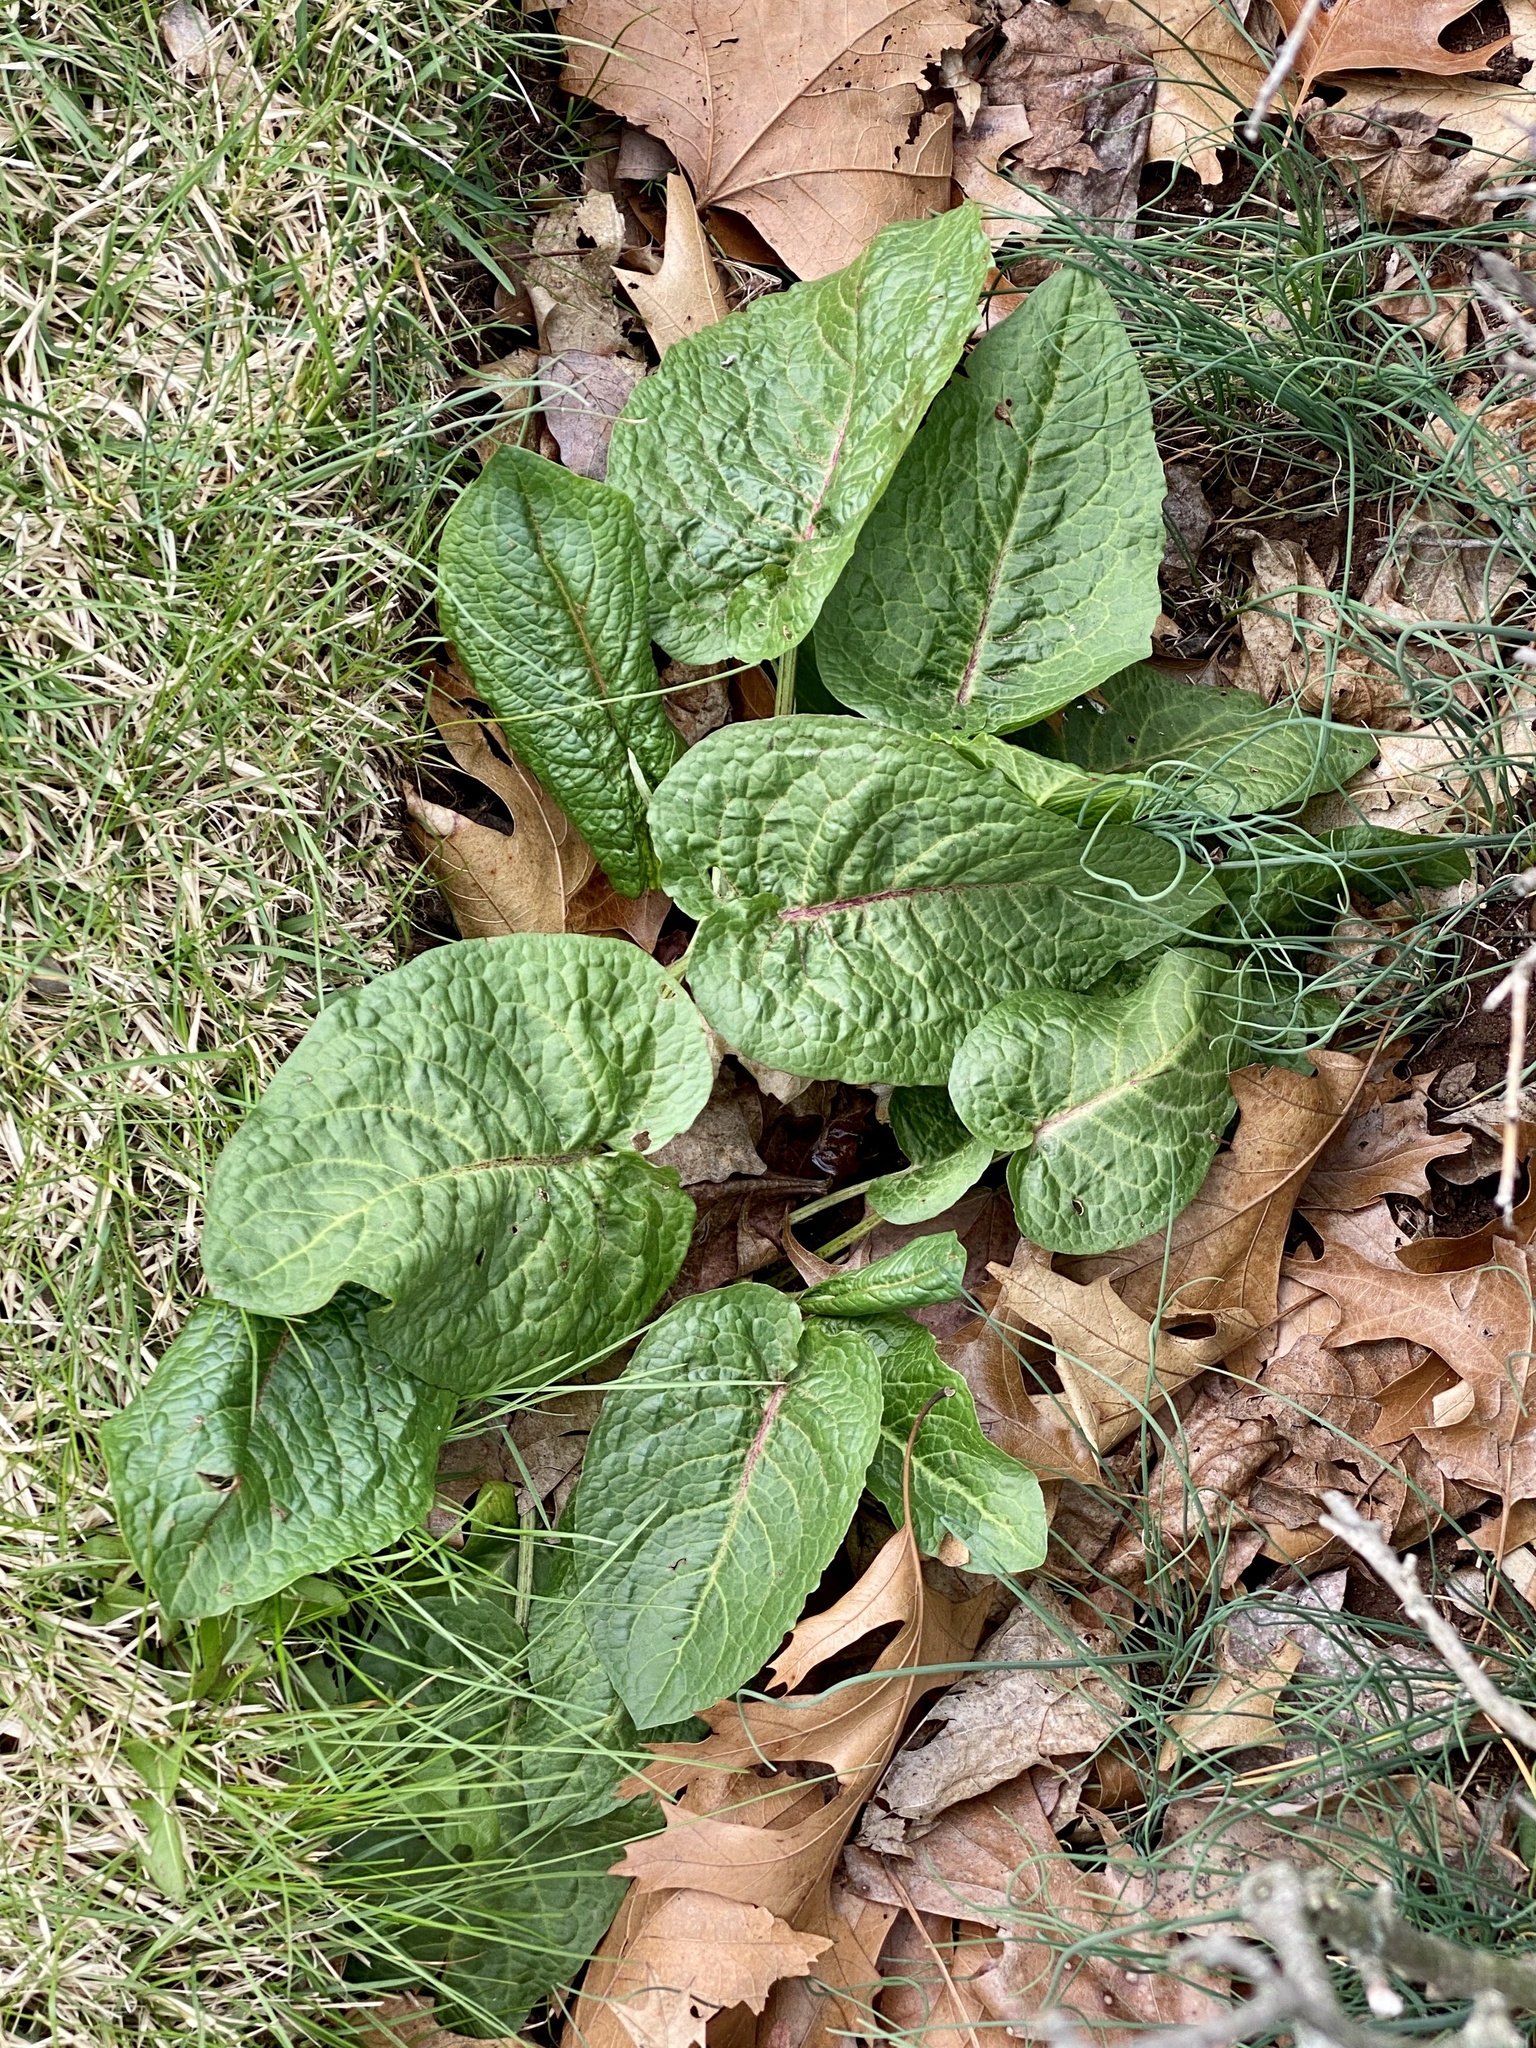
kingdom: Plantae
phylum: Tracheophyta
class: Magnoliopsida
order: Caryophyllales
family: Polygonaceae
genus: Rumex
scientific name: Rumex obtusifolius
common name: Bitter dock
